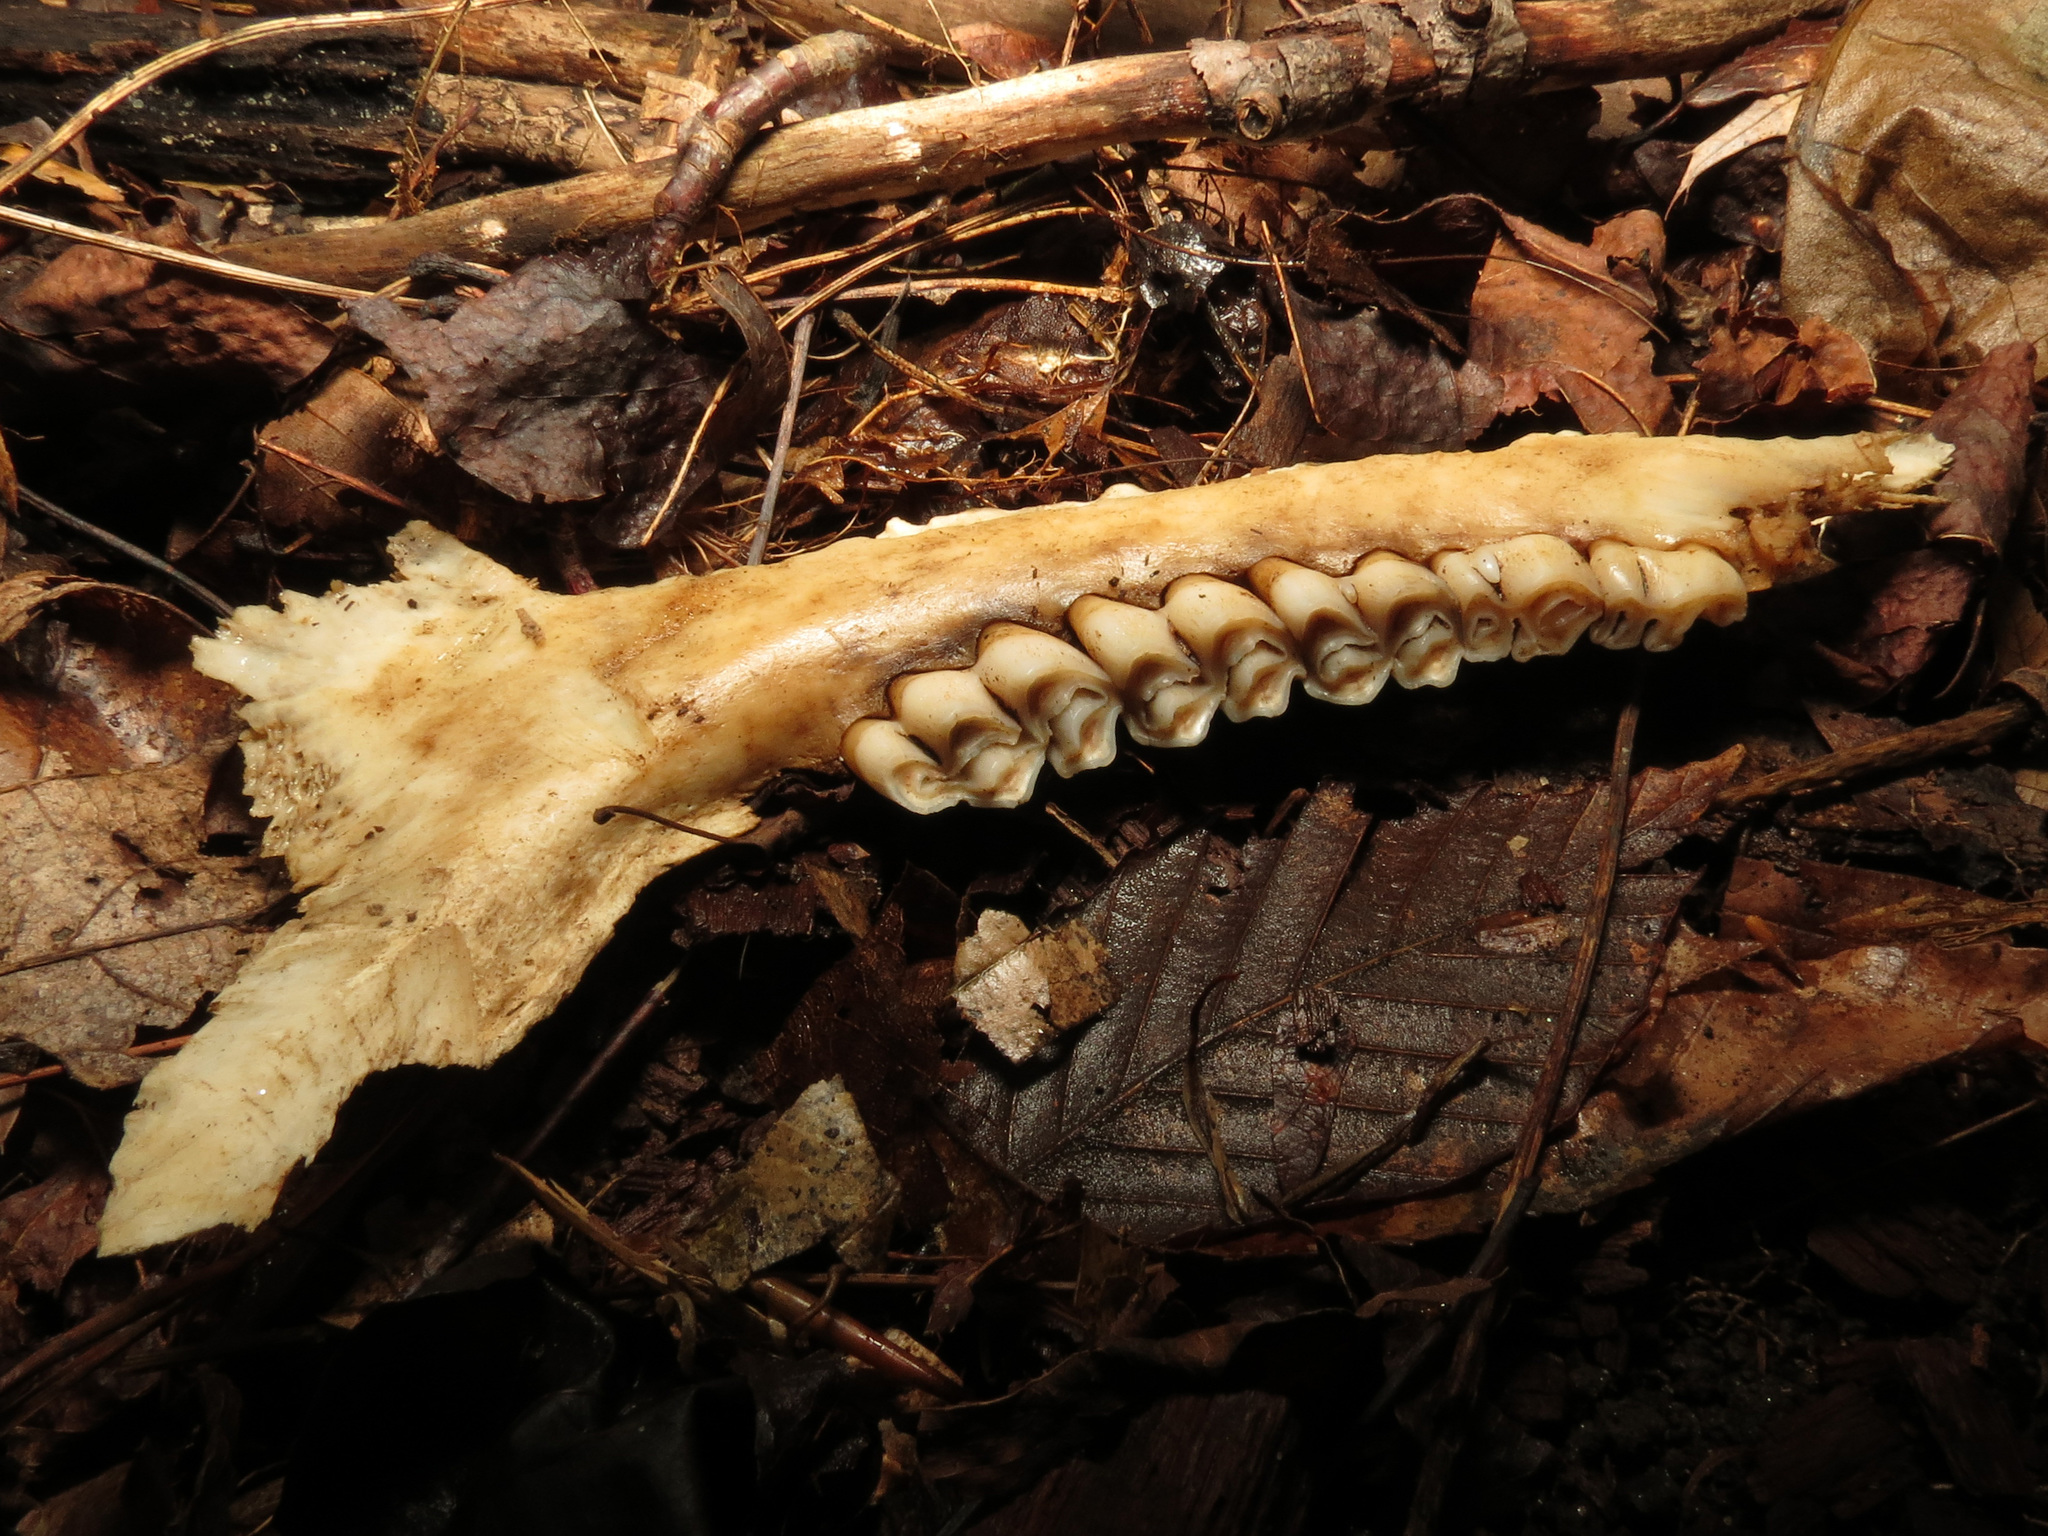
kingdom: Animalia
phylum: Chordata
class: Mammalia
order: Artiodactyla
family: Cervidae
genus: Odocoileus
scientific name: Odocoileus virginianus
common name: White-tailed deer
